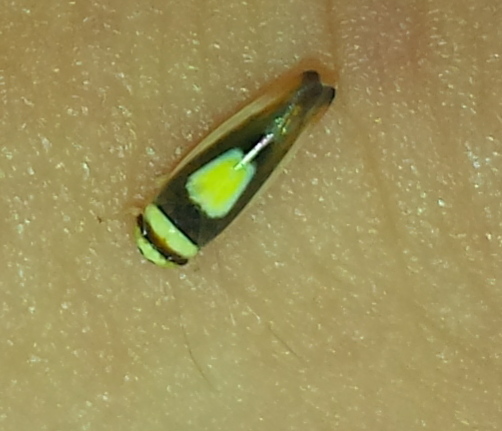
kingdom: Animalia
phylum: Arthropoda
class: Insecta
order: Hemiptera
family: Cicadellidae
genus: Colladonus
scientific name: Colladonus clitellarius
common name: The saddleback leafhopper
